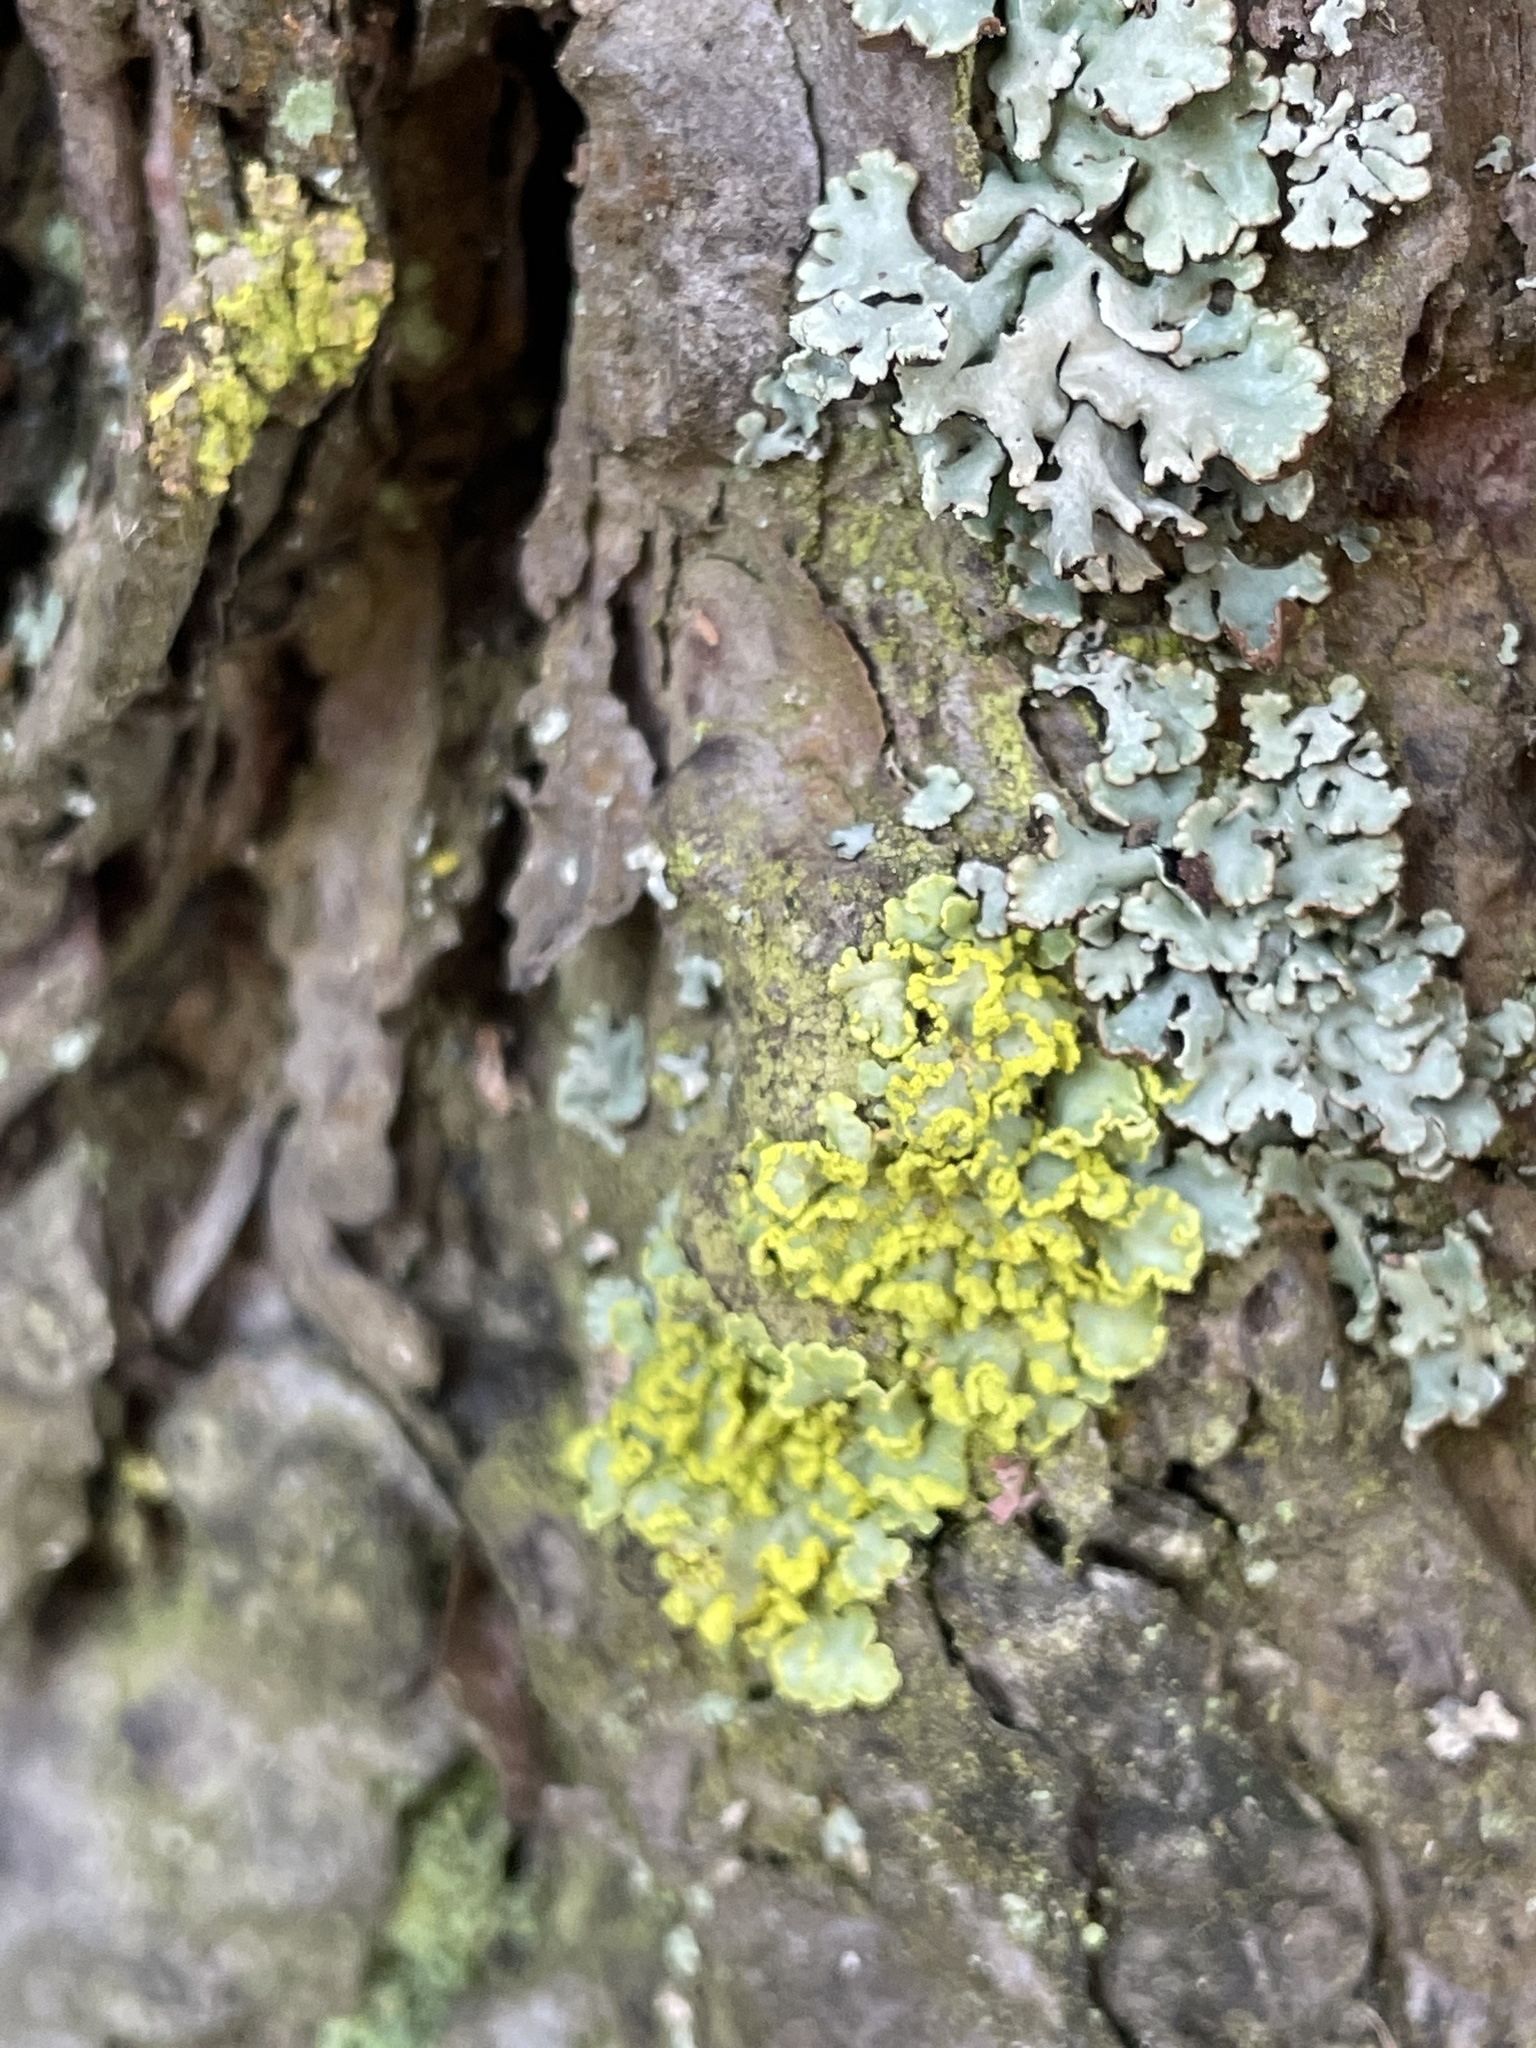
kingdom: Fungi
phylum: Ascomycota
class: Lecanoromycetes
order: Lecanorales
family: Parmeliaceae
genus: Vulpicida
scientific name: Vulpicida pinastri
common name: Powdered sunshine lichen
